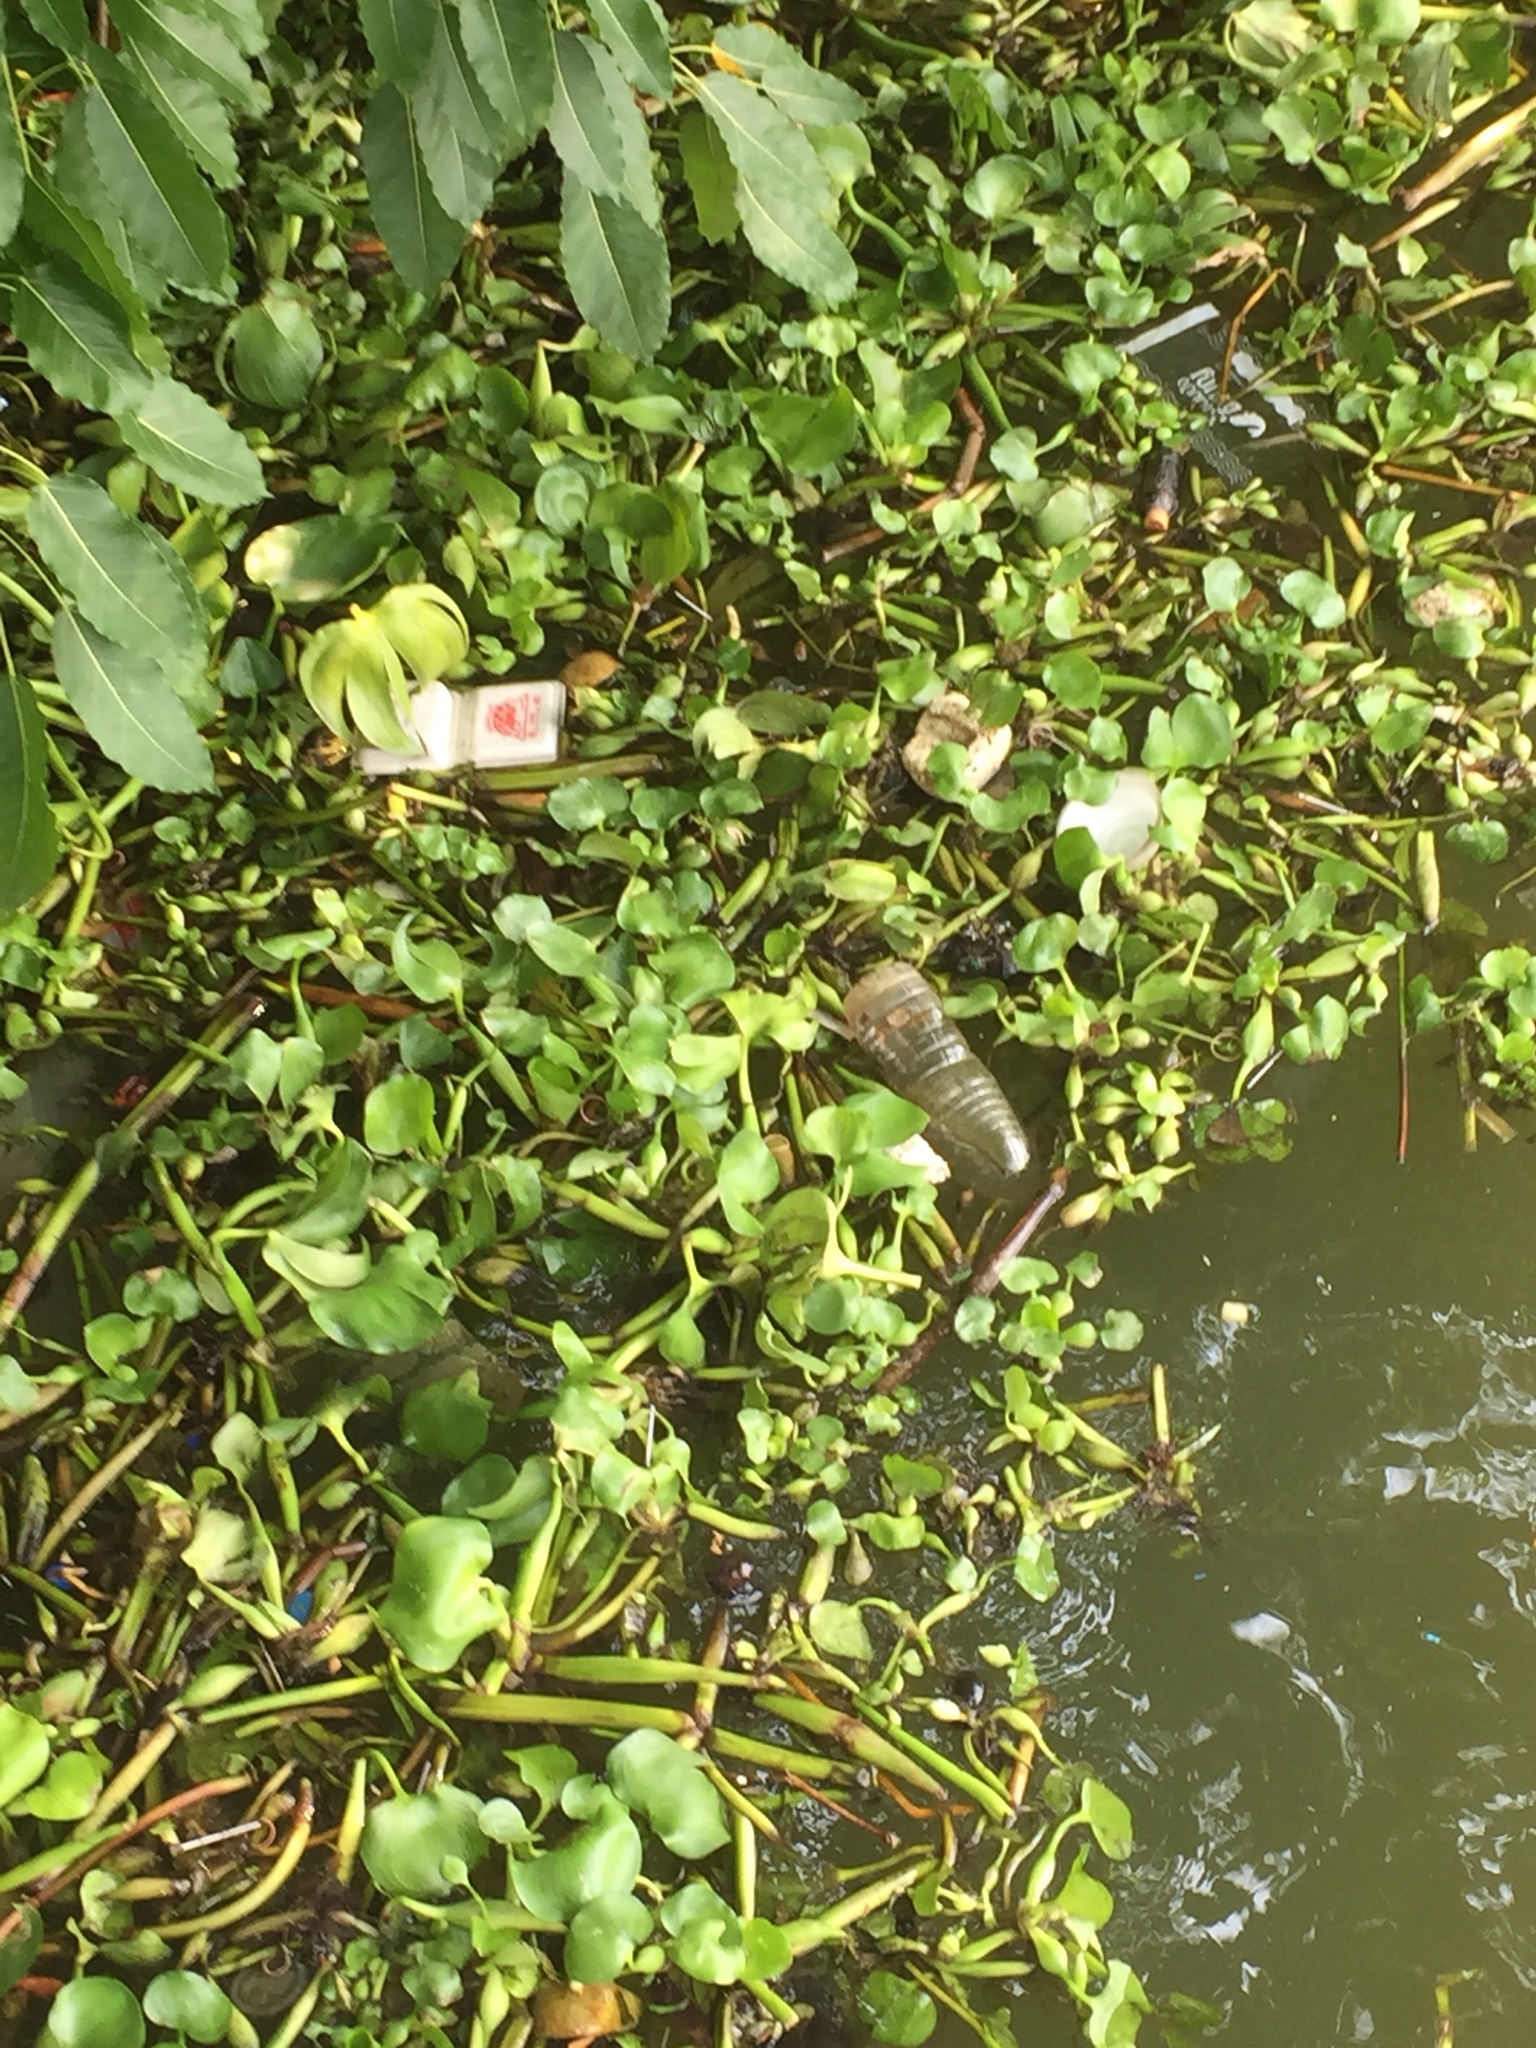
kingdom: Plantae
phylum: Tracheophyta
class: Liliopsida
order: Commelinales
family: Pontederiaceae
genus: Pontederia
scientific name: Pontederia crassipes
